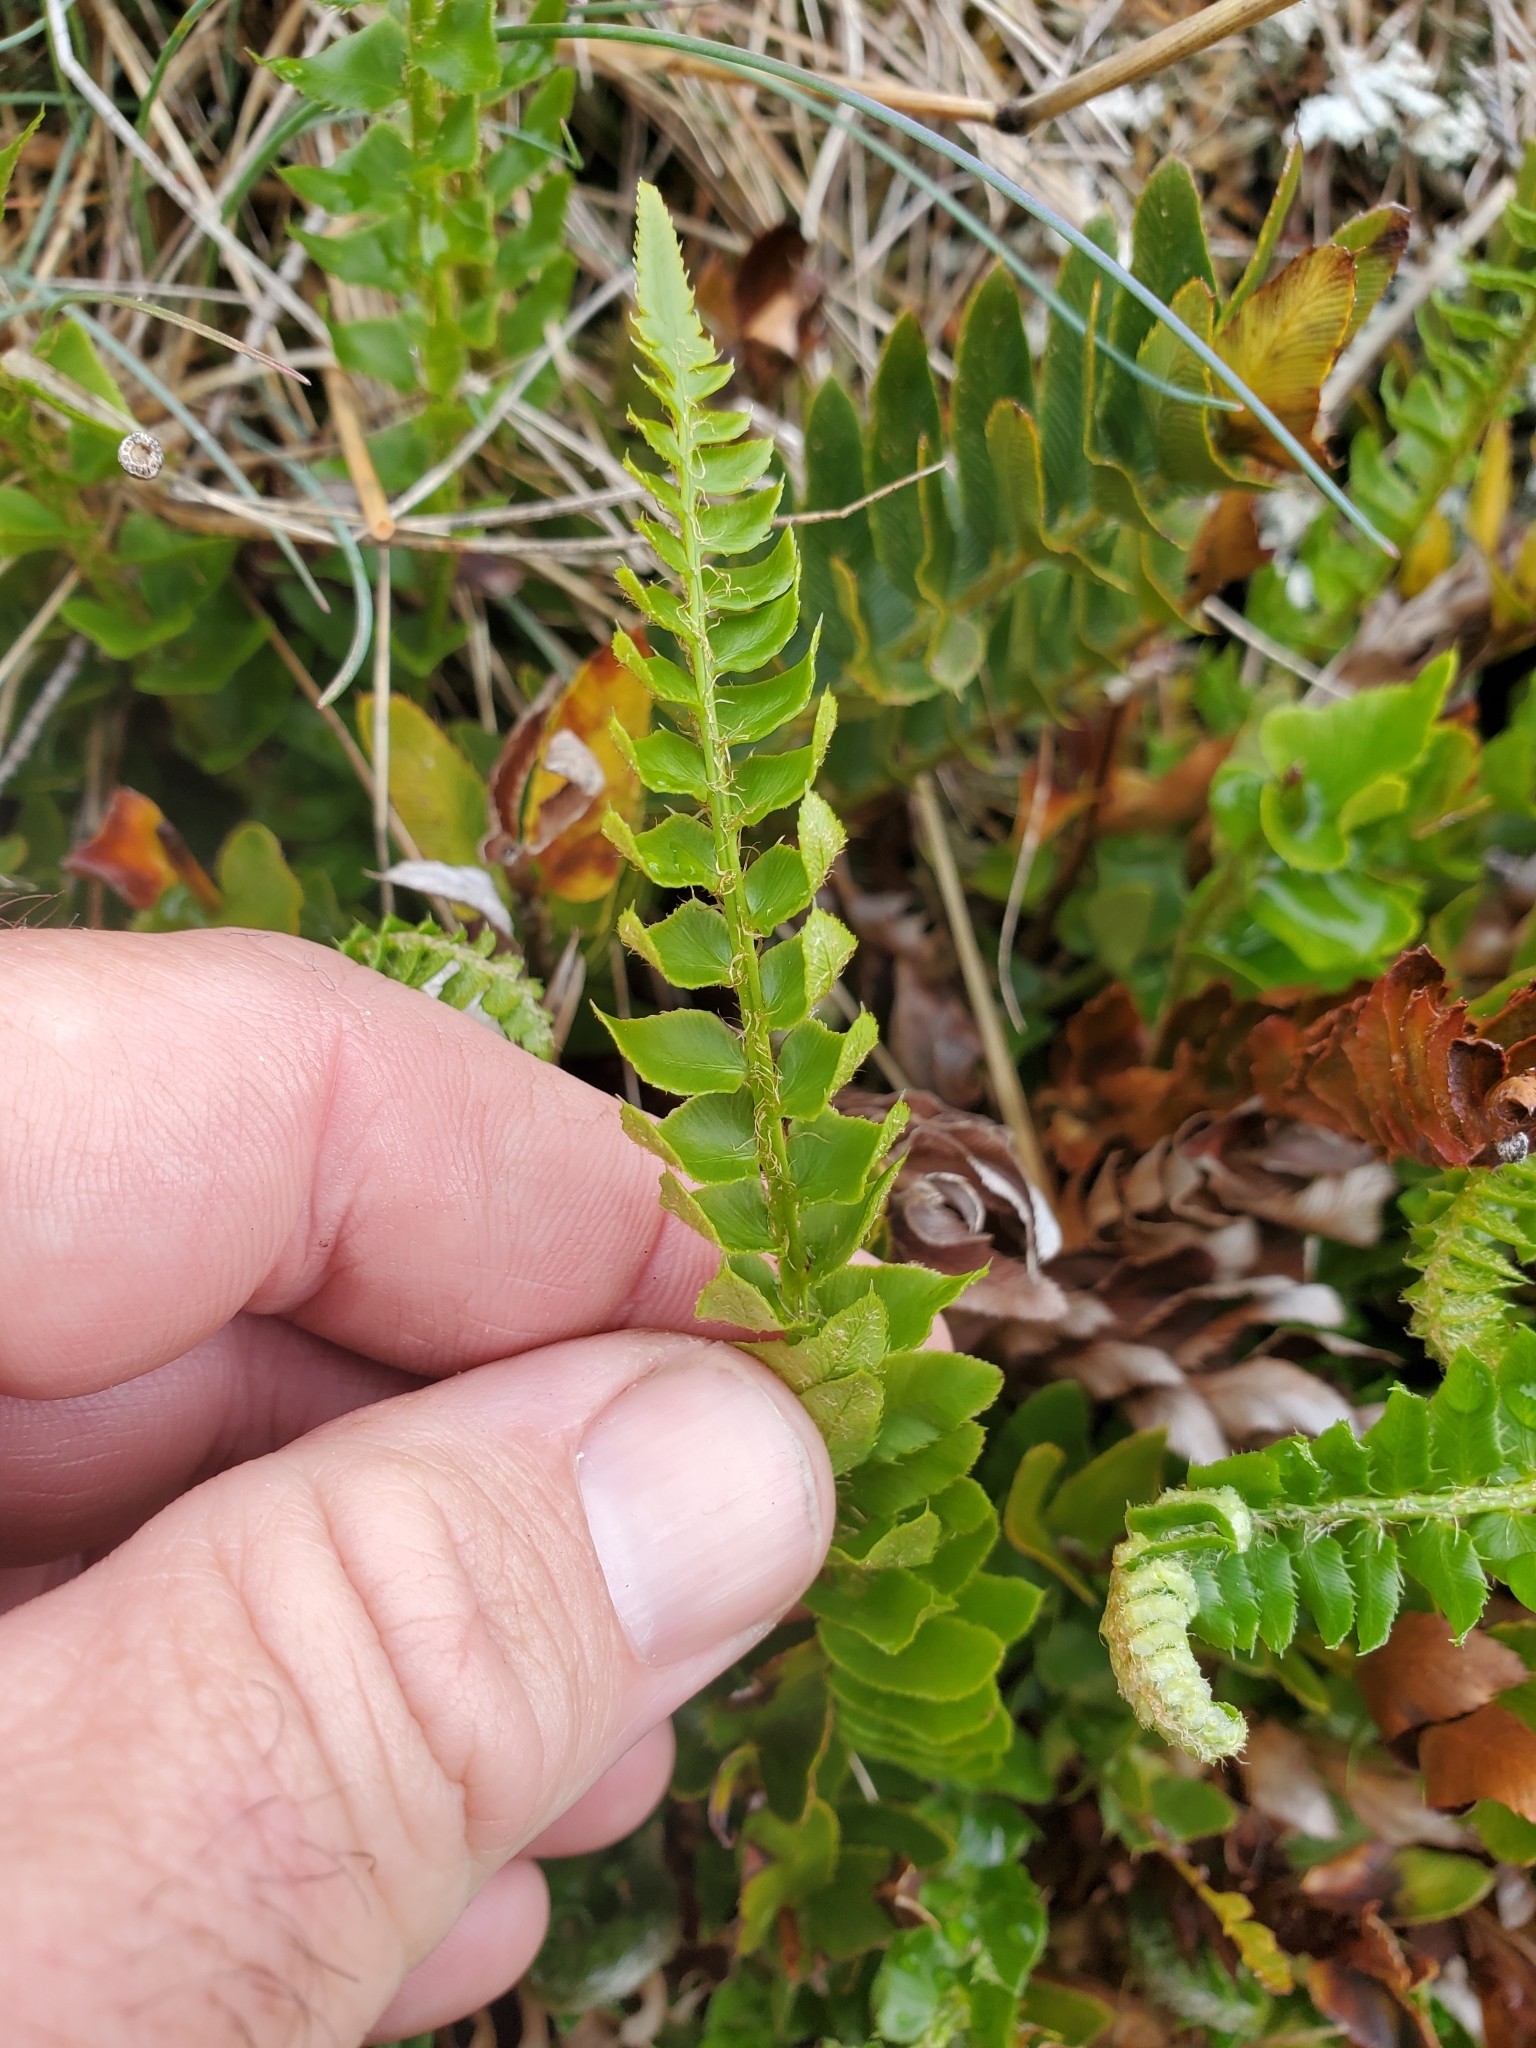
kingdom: Plantae
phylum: Tracheophyta
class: Polypodiopsida
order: Polypodiales
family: Dryopteridaceae
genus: Polystichum
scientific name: Polystichum imbricans
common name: Dwarf western sword fern
